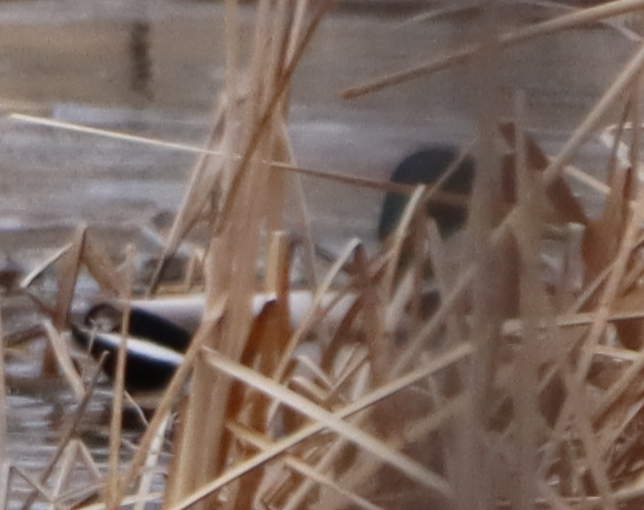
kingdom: Animalia
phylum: Chordata
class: Aves
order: Anseriformes
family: Anatidae
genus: Anas
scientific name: Anas platyrhynchos
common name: Mallard
